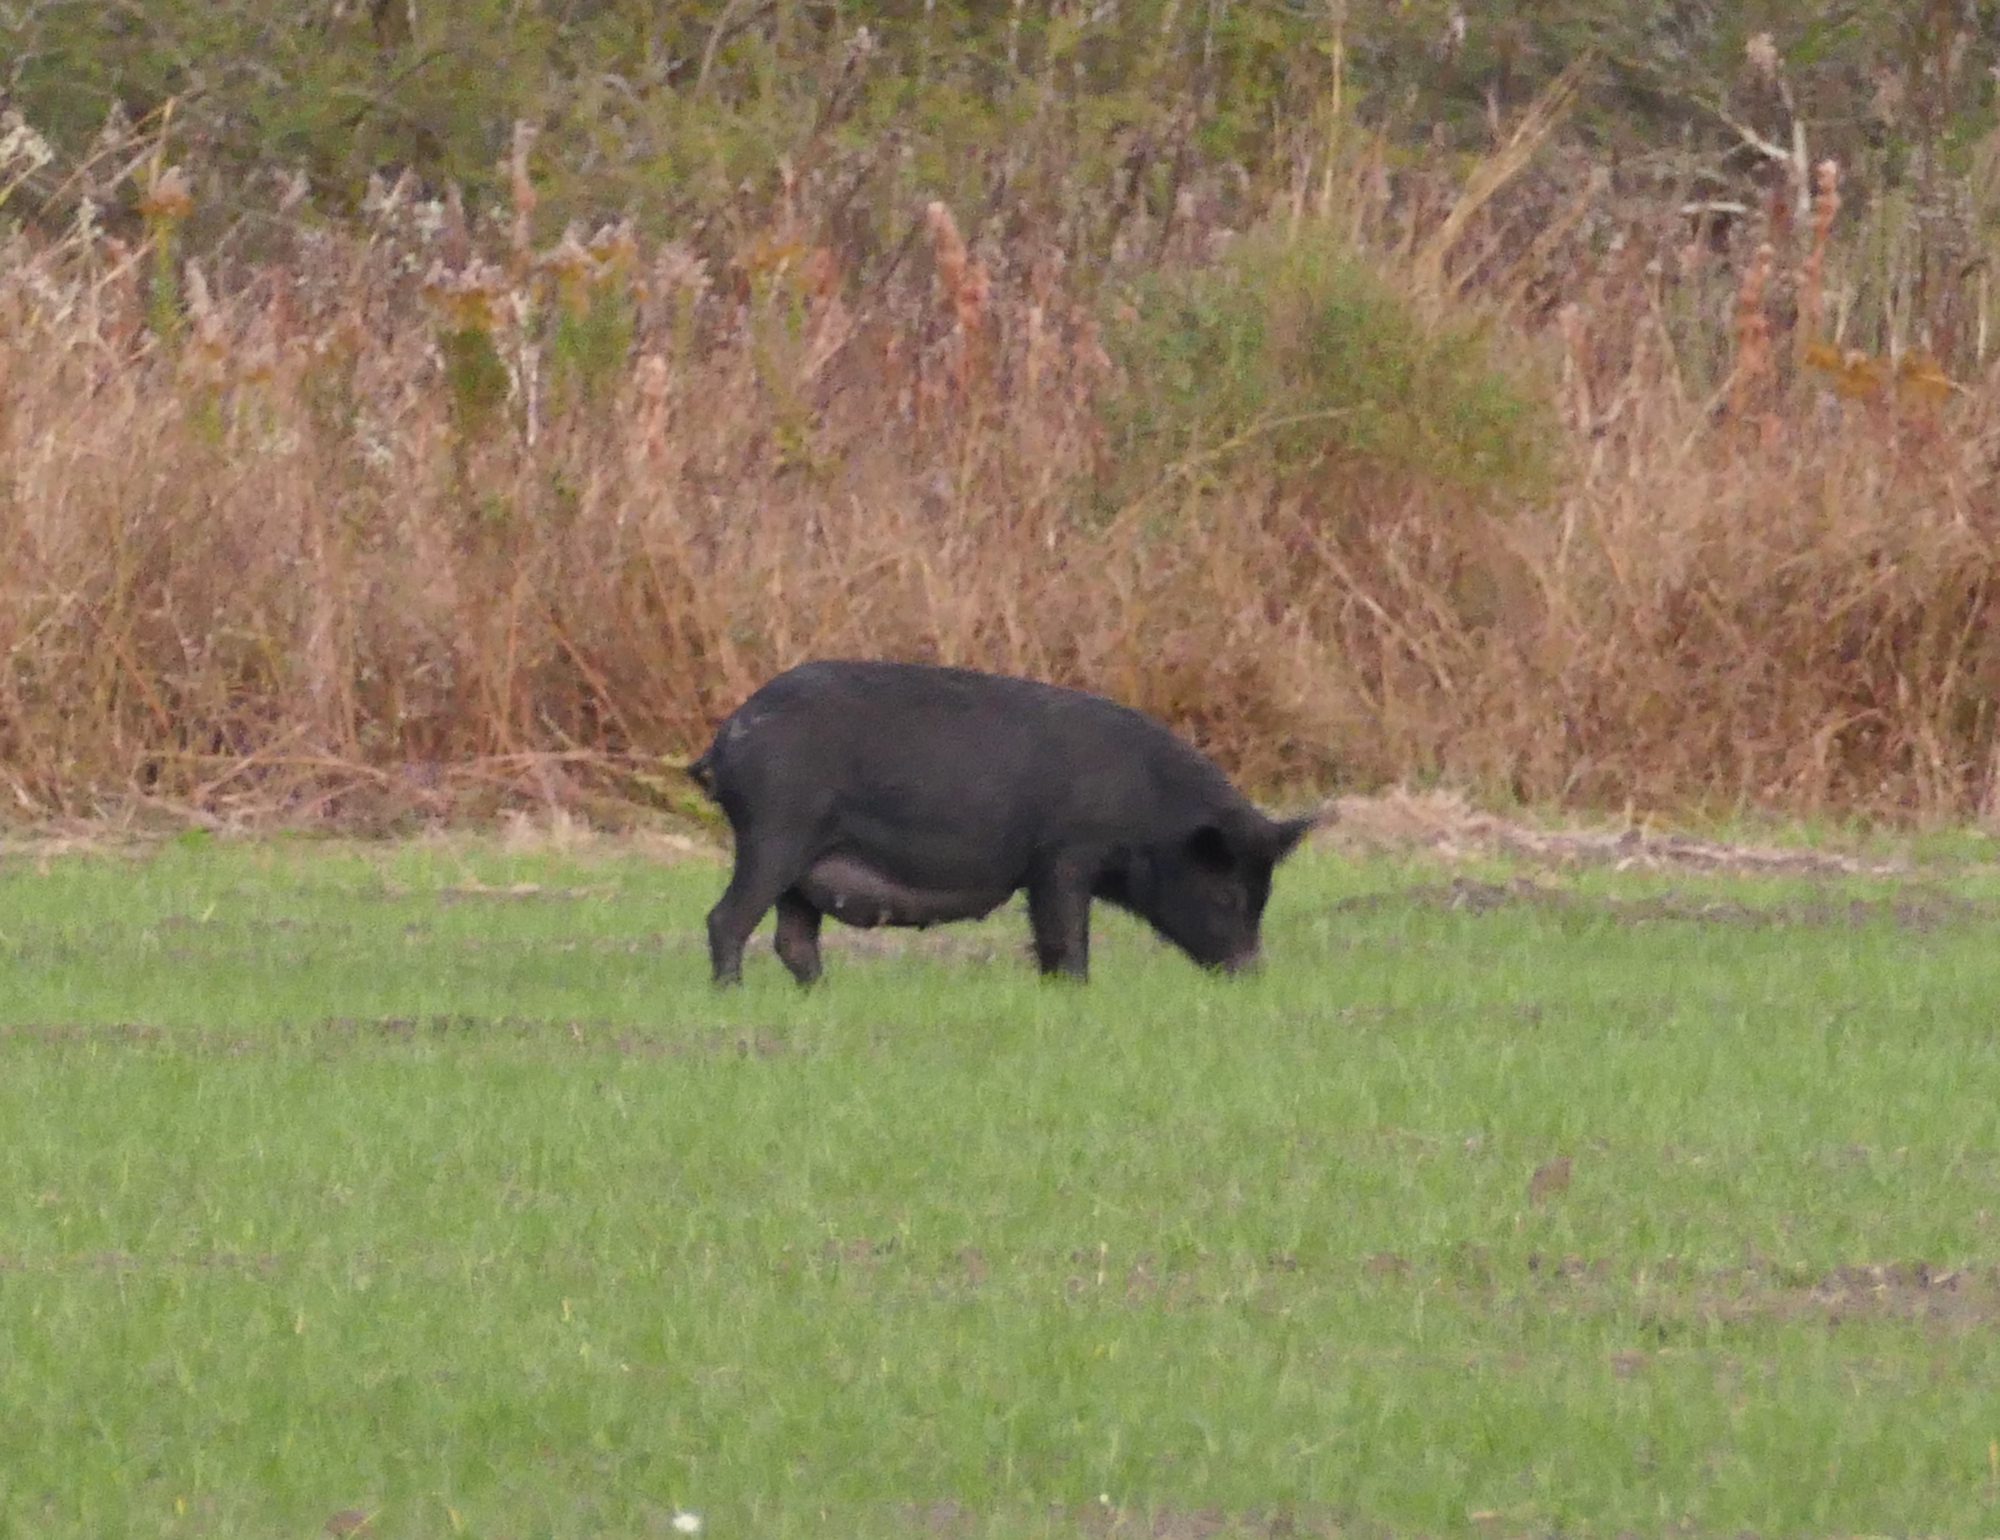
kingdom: Animalia
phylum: Chordata
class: Mammalia
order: Artiodactyla
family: Suidae
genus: Sus
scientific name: Sus scrofa
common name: Wild boar
